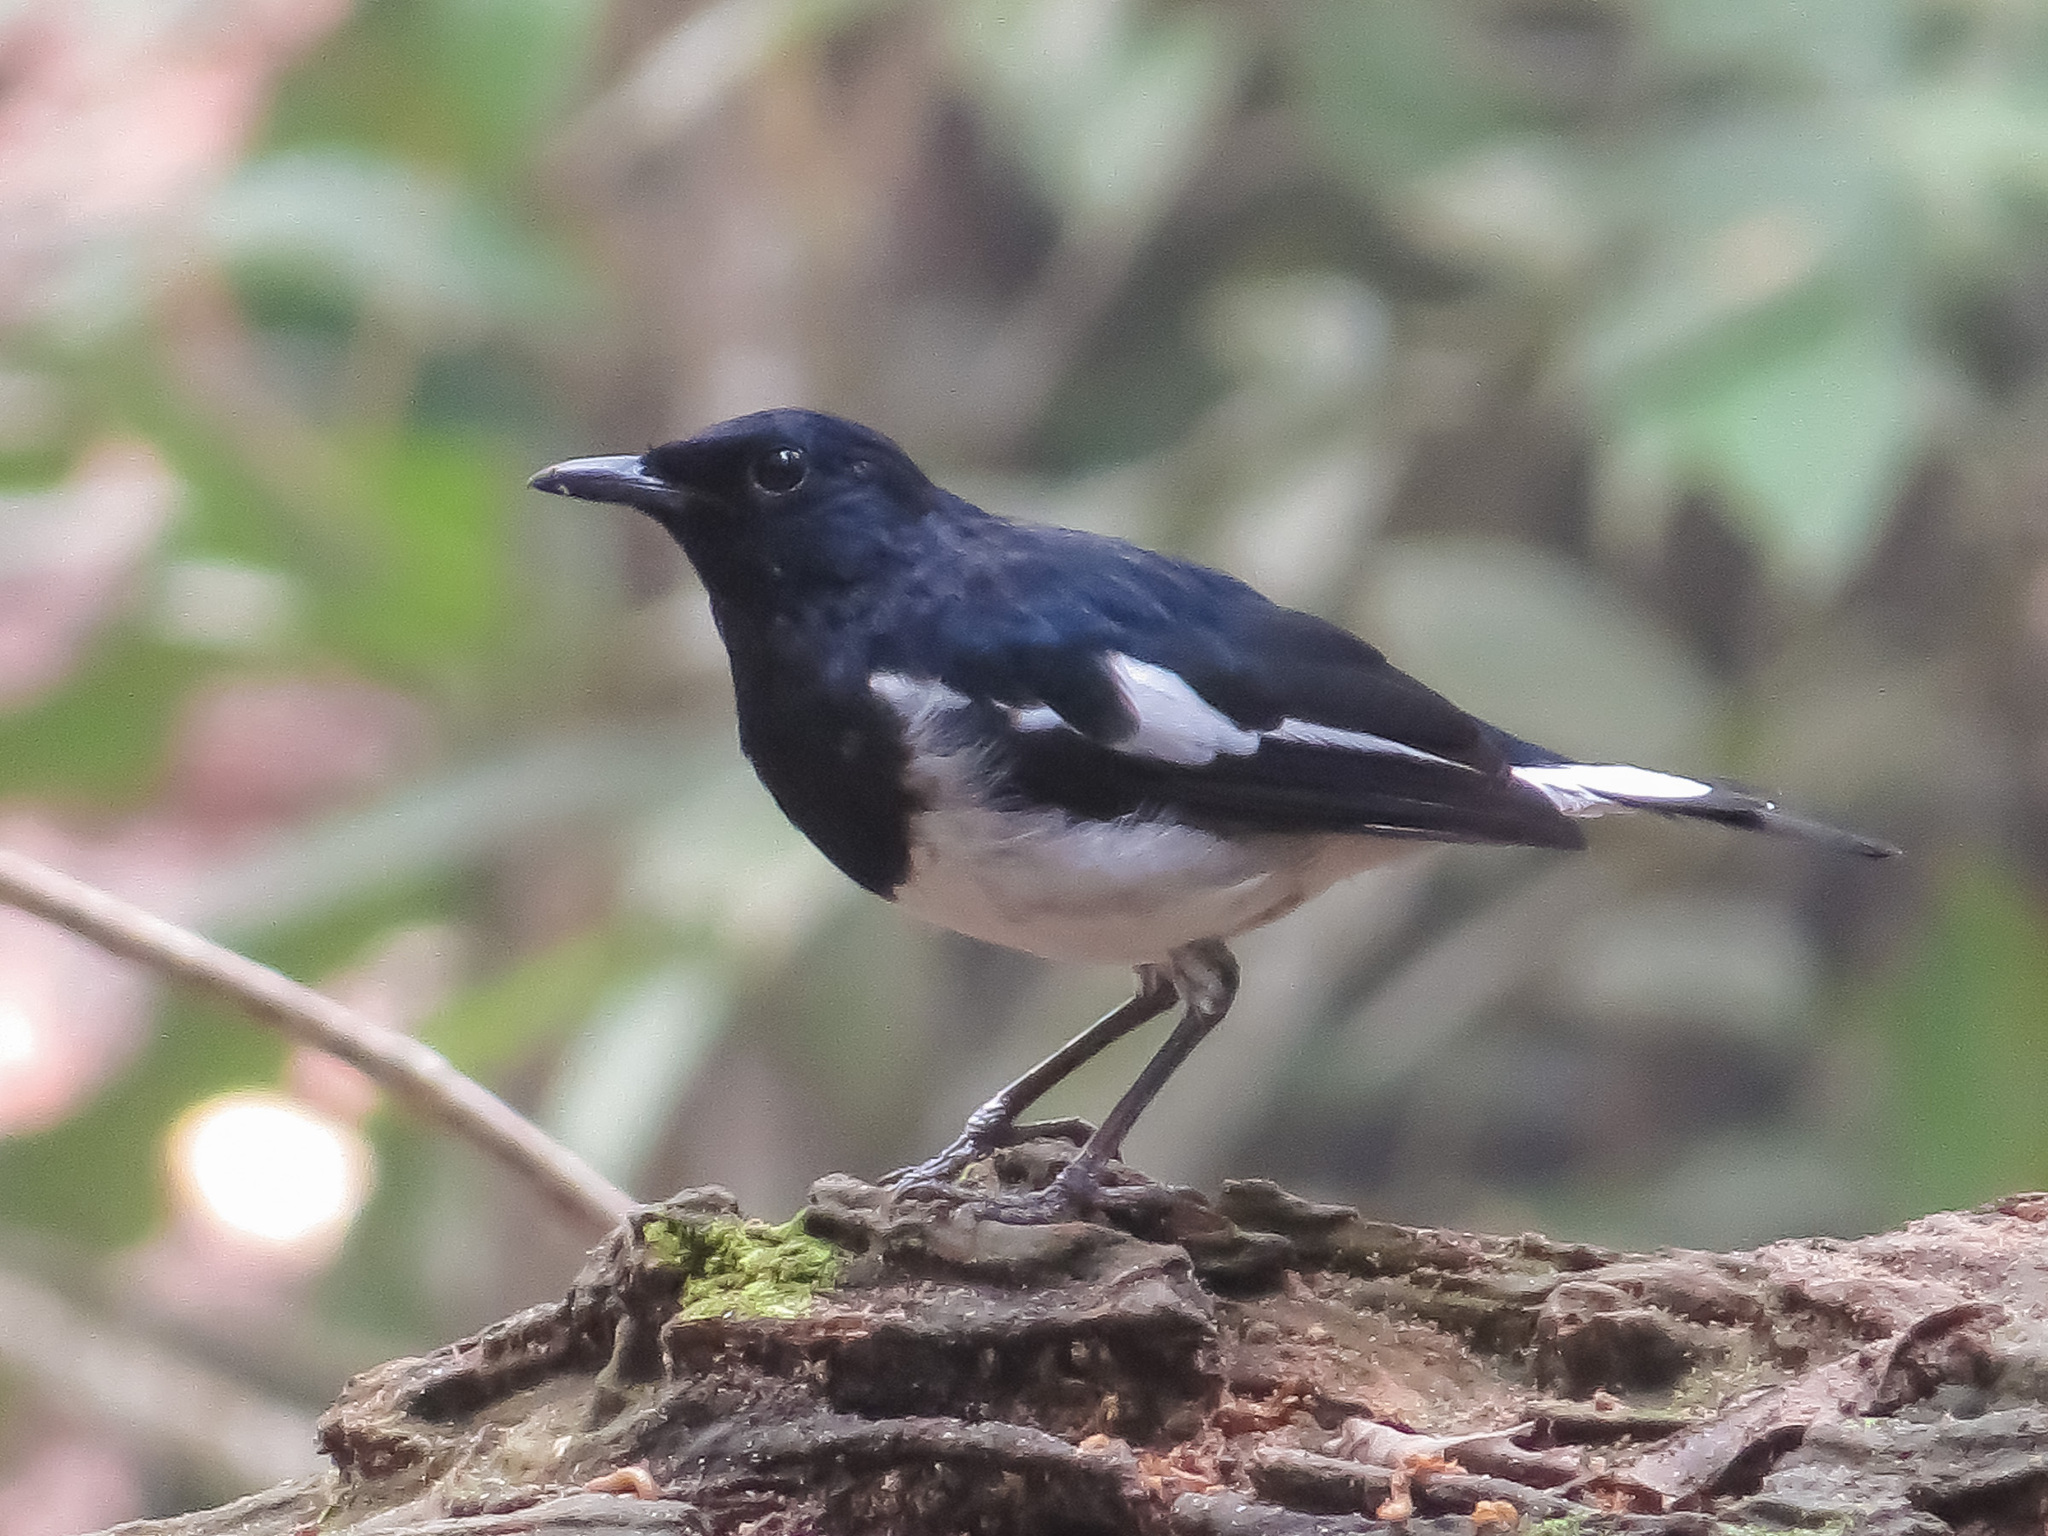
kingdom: Animalia
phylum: Chordata
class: Aves
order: Passeriformes
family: Muscicapidae
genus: Copsychus
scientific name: Copsychus saularis
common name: Oriental magpie-robin
